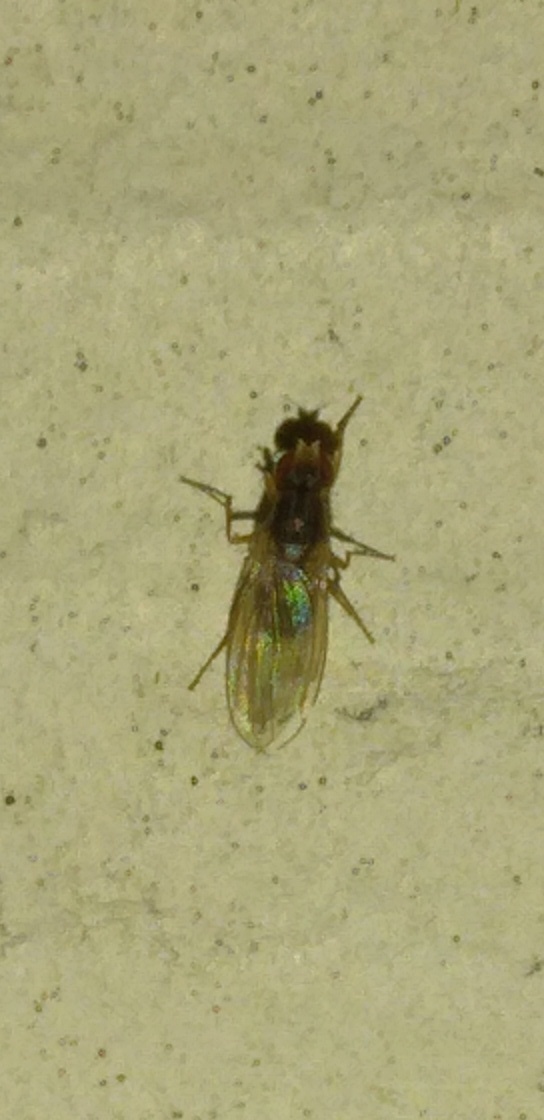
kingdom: Animalia
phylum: Arthropoda
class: Insecta
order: Diptera
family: Drosophilidae
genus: Scaptomyza
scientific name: Scaptomyza pallida
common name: Pomace fly
